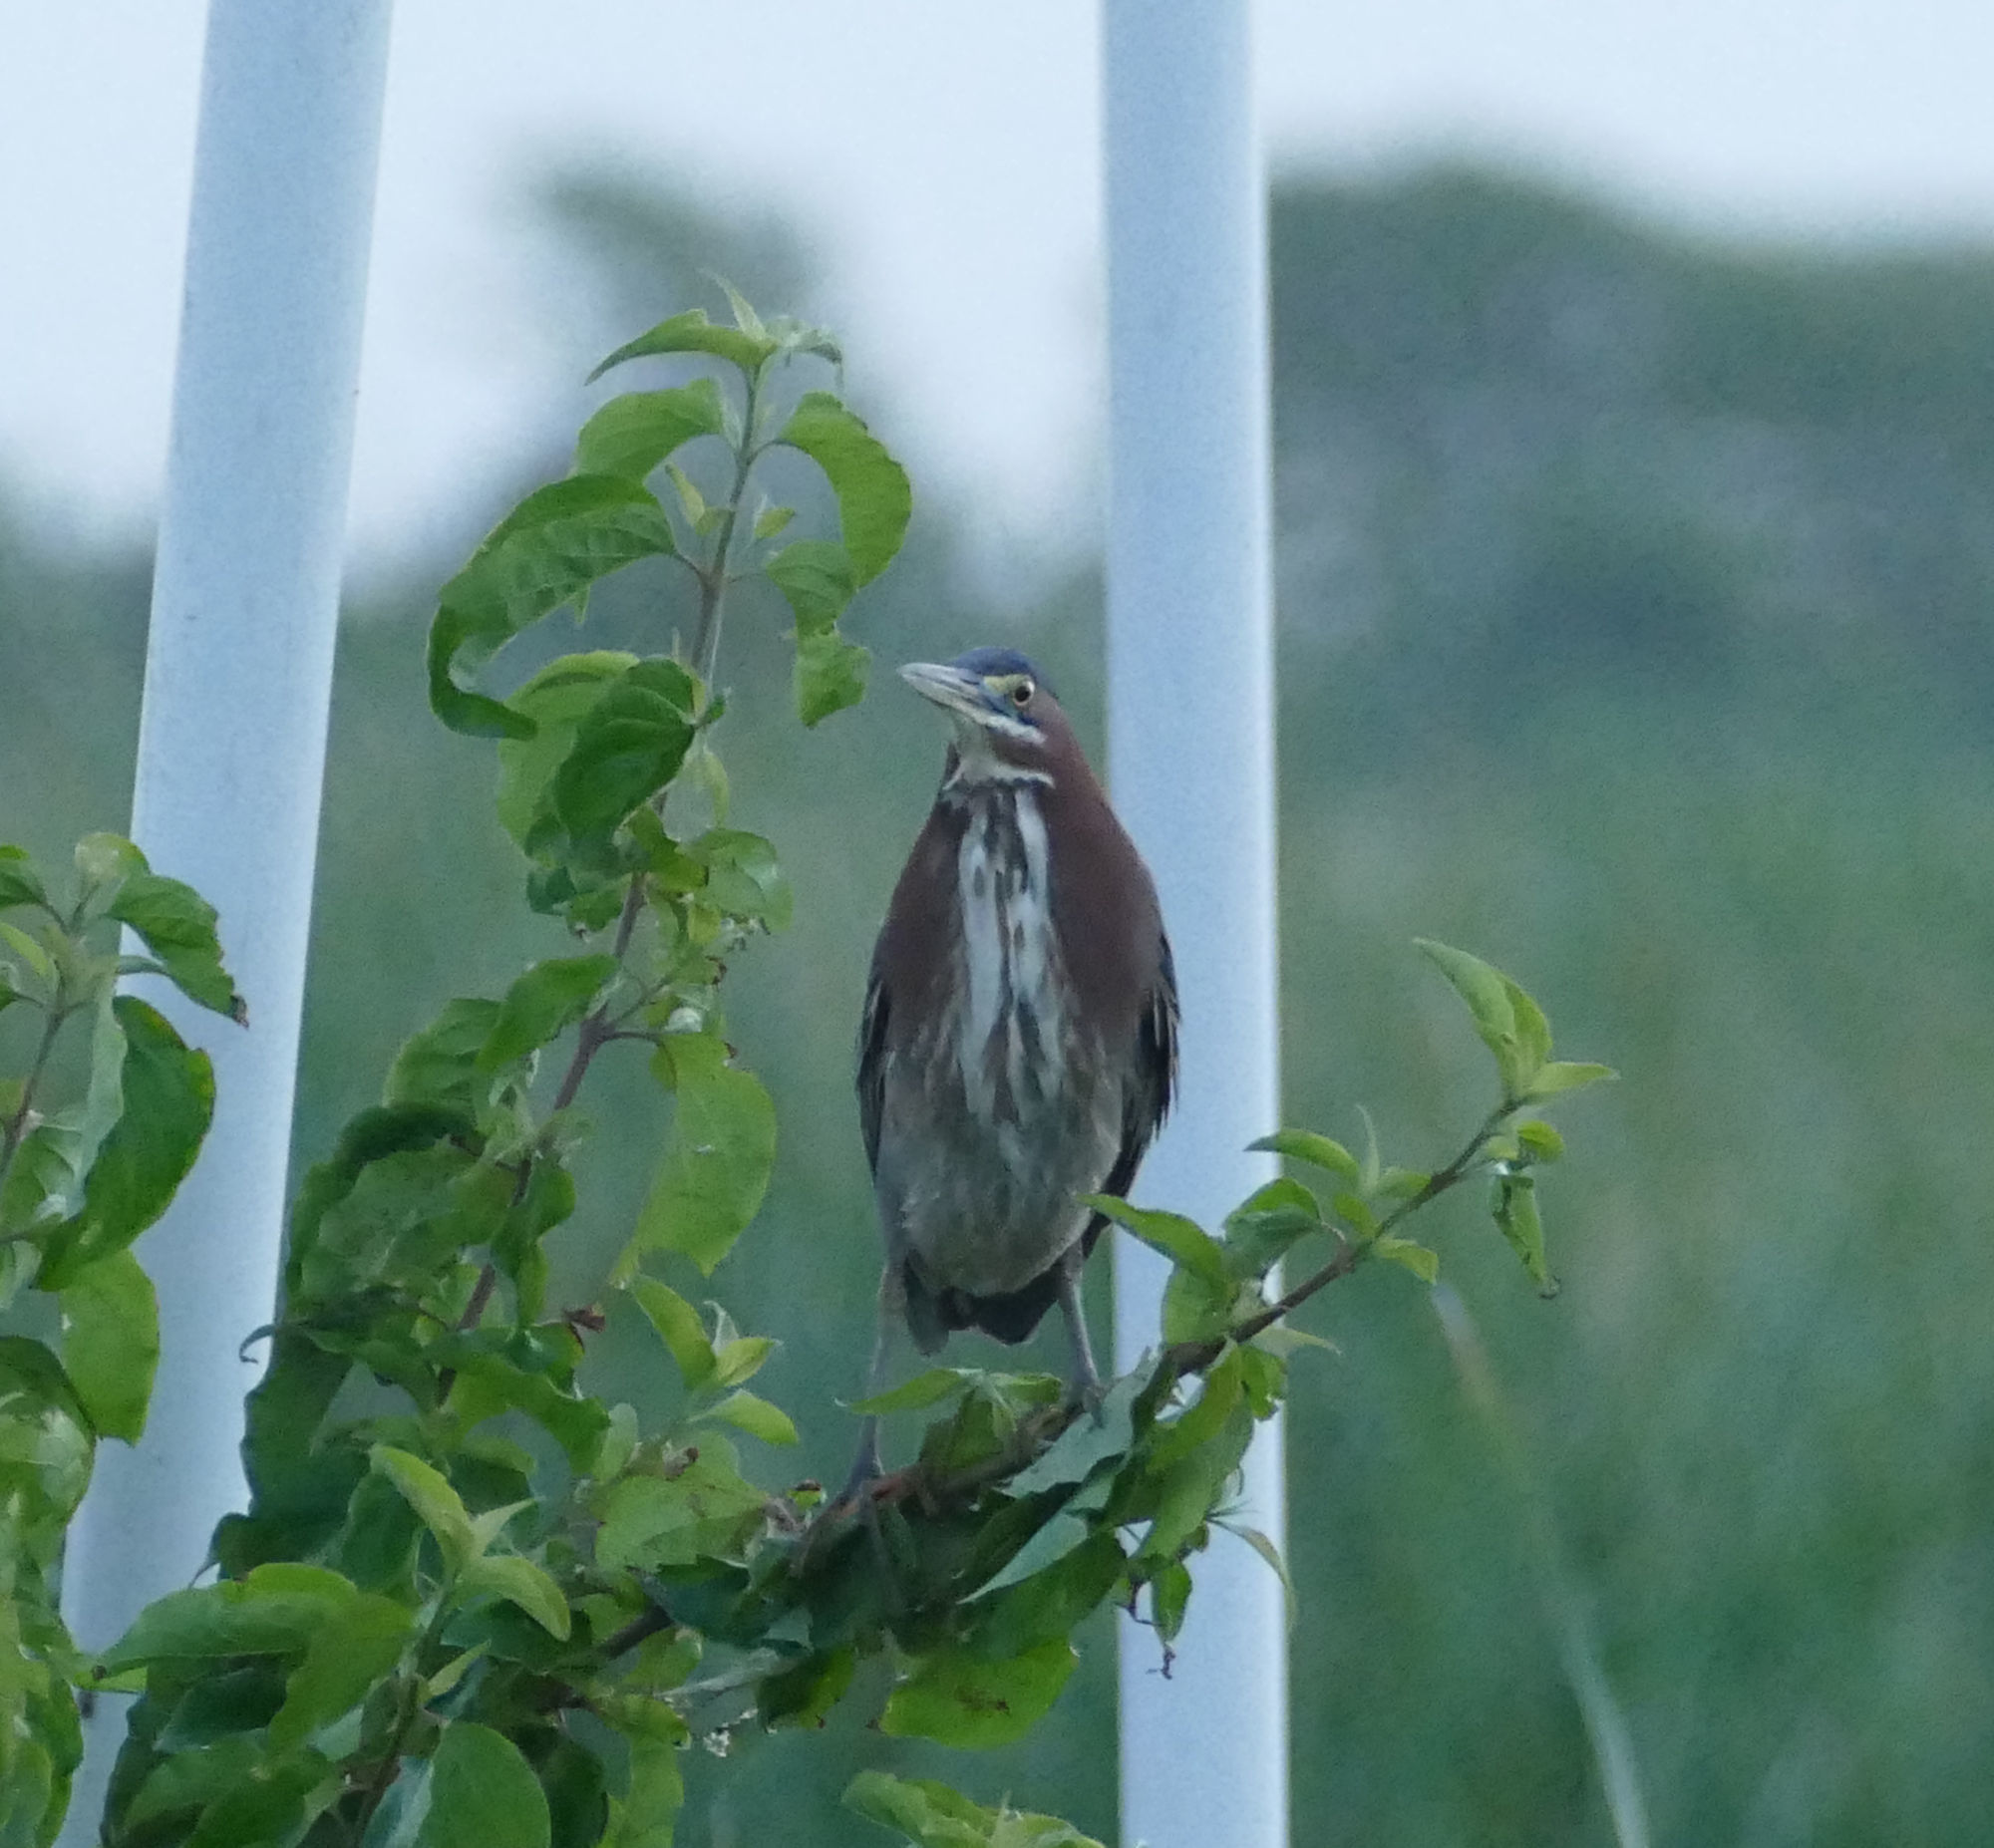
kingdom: Animalia
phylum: Chordata
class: Aves
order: Pelecaniformes
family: Ardeidae
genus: Butorides
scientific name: Butorides virescens
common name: Green heron
